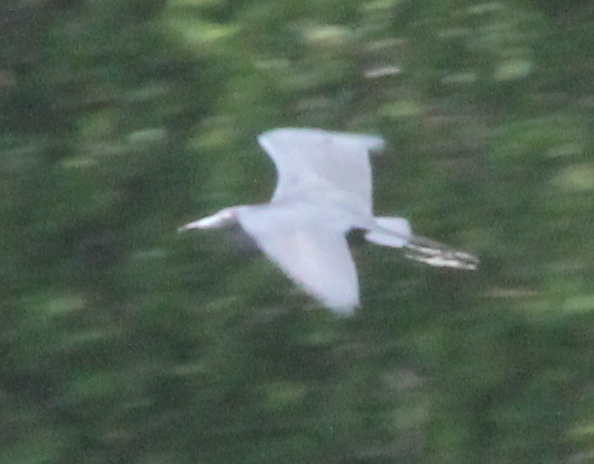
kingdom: Animalia
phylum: Chordata
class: Aves
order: Pelecaniformes
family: Ardeidae
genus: Egretta
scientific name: Egretta caerulea
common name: Little blue heron
